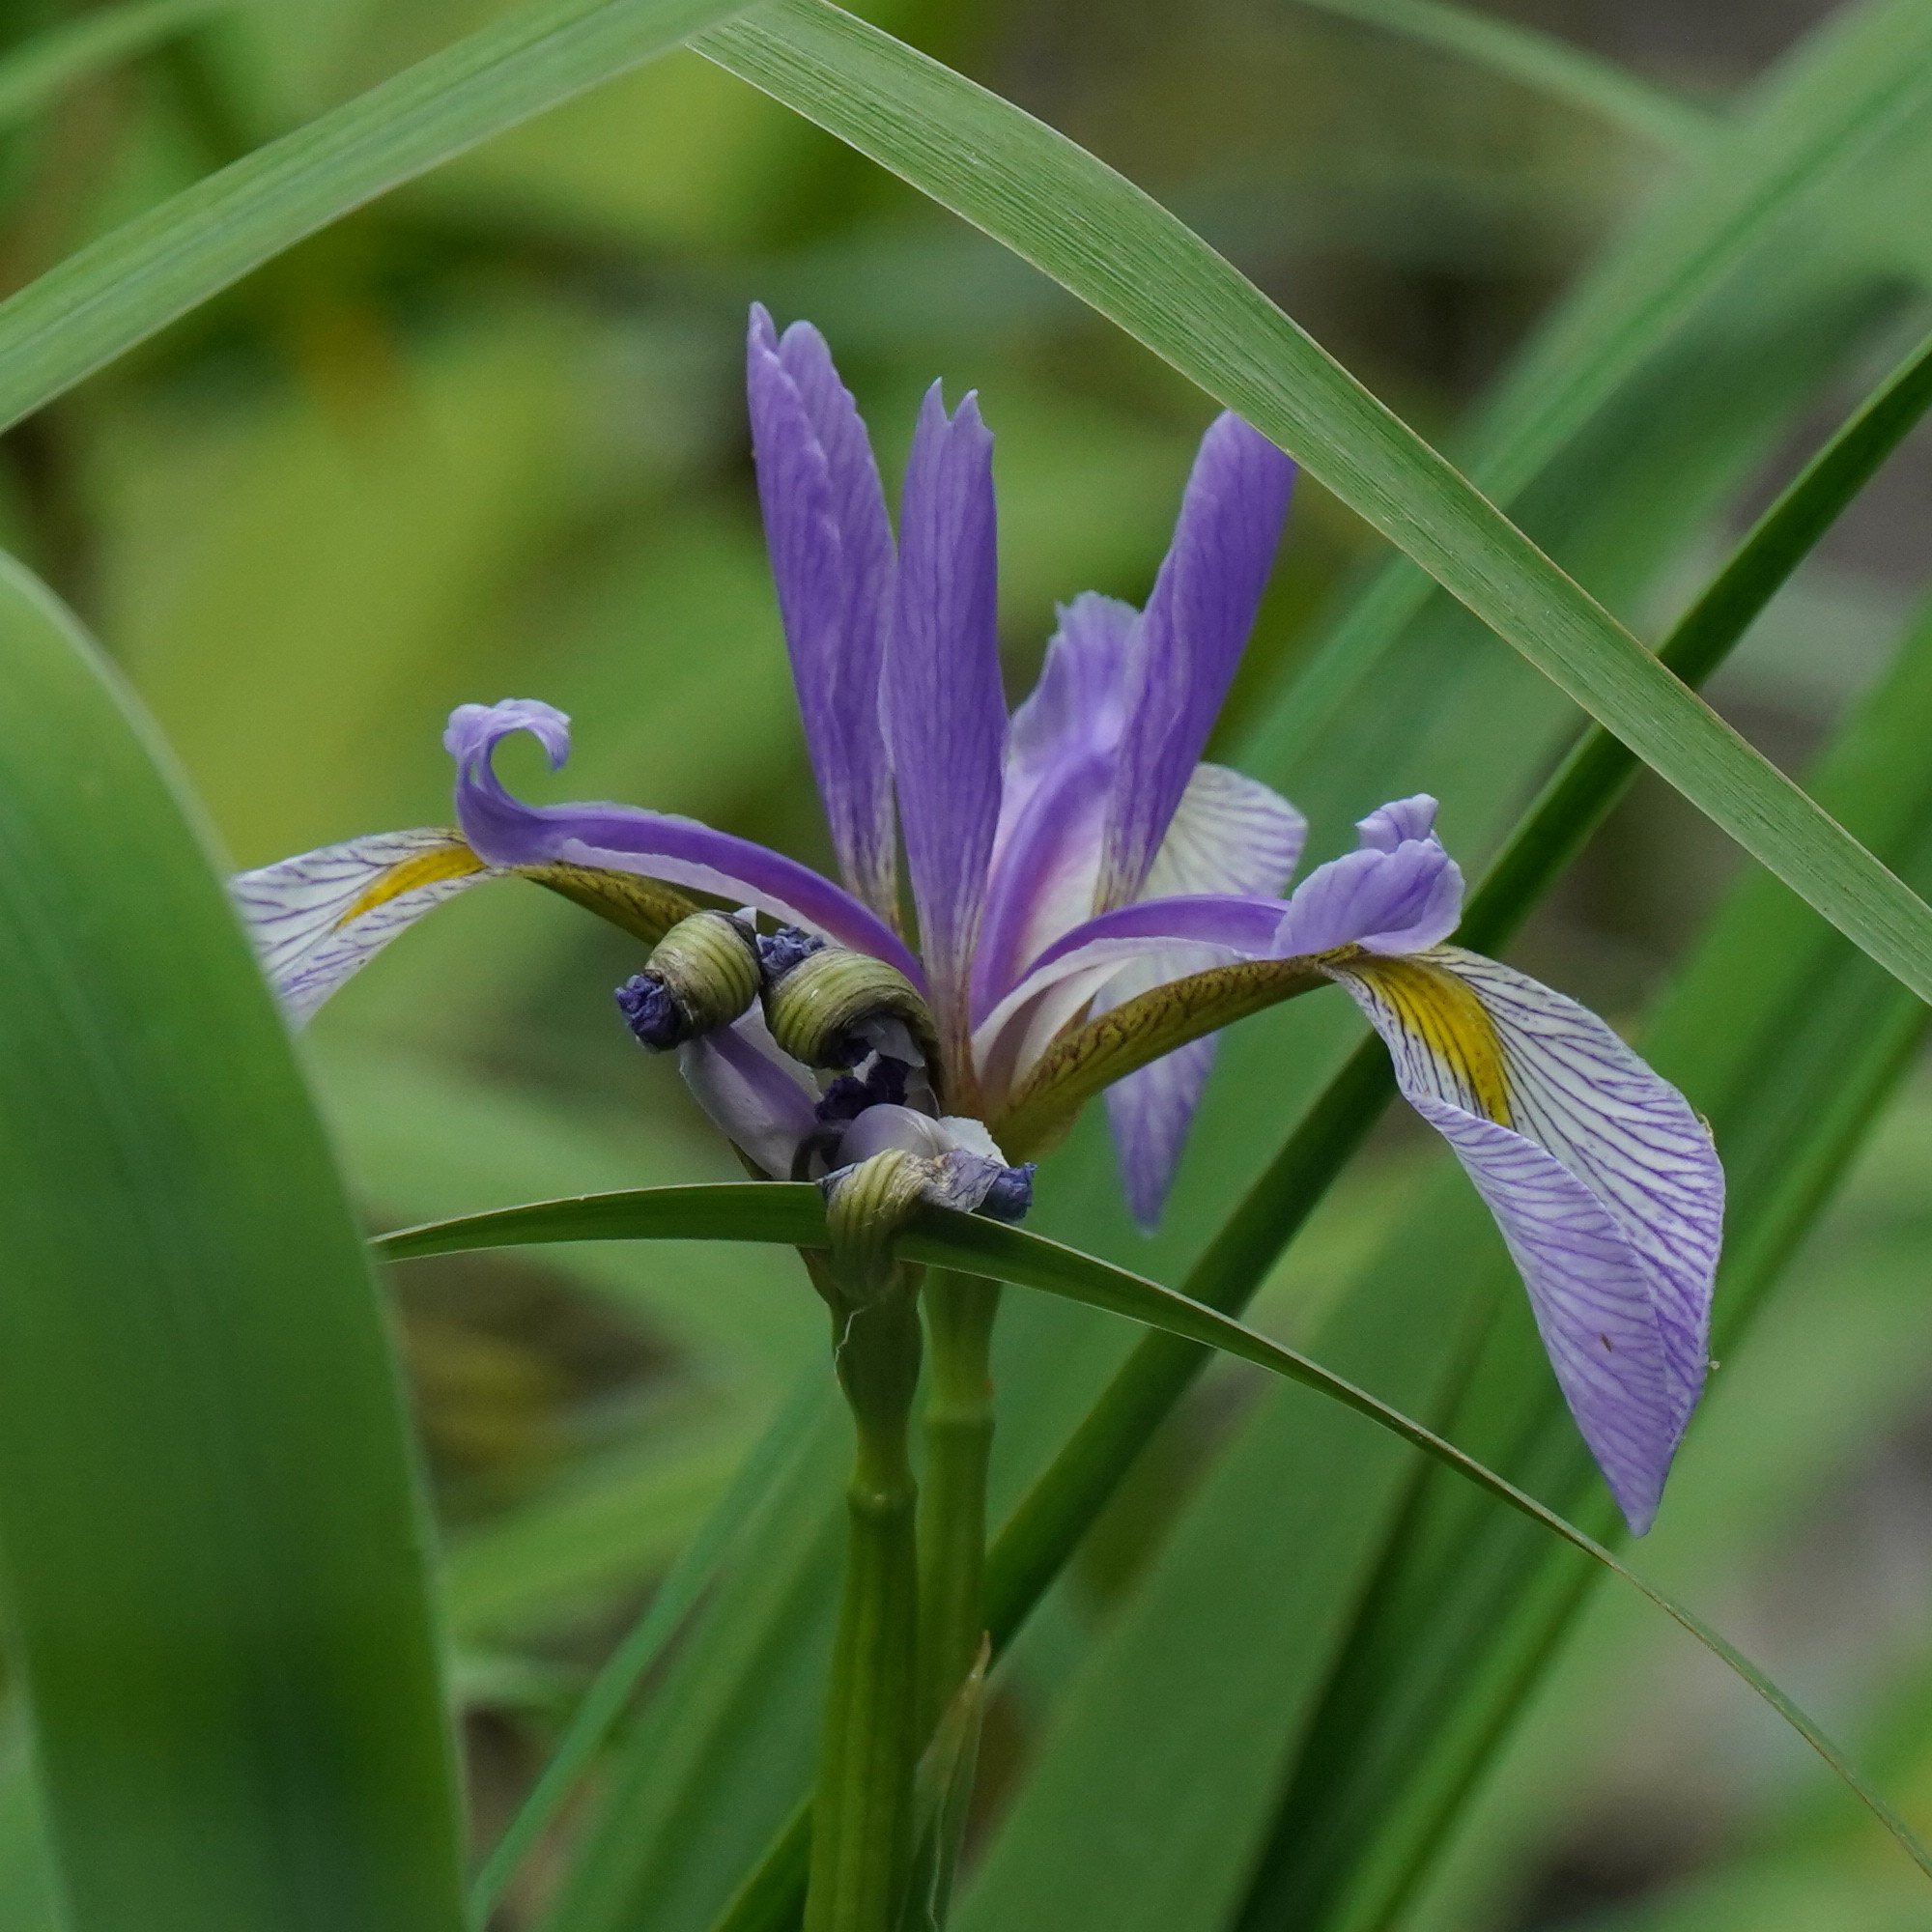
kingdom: Plantae
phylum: Tracheophyta
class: Liliopsida
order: Asparagales
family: Iridaceae
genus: Iris
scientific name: Iris virginica
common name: Southern blue flag
